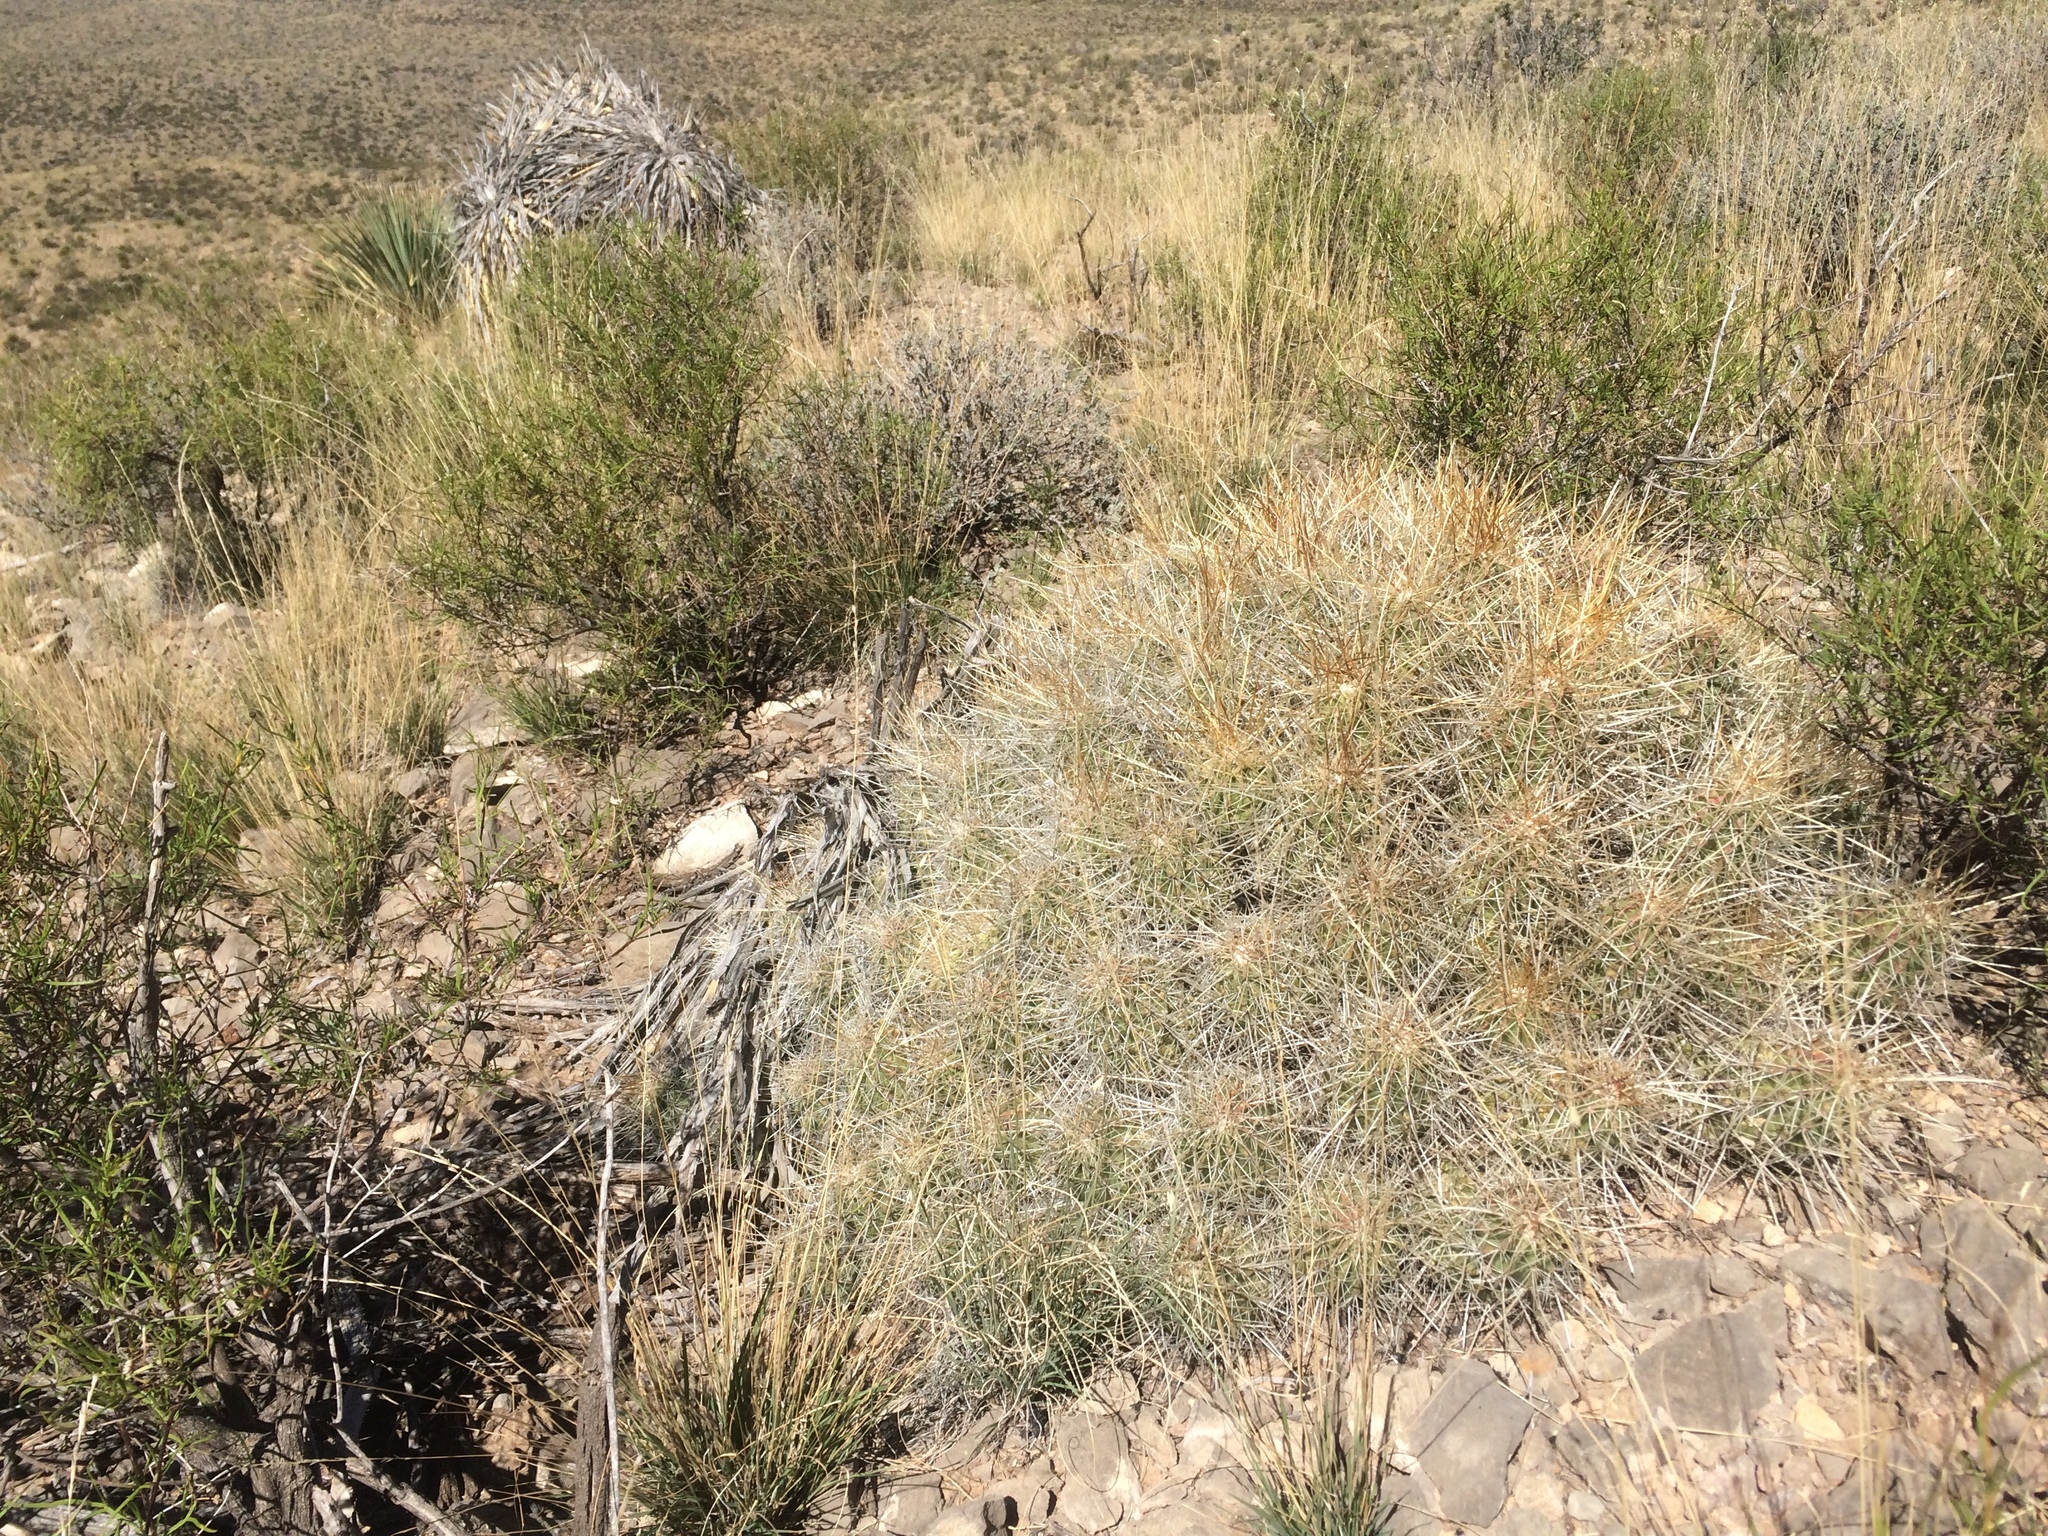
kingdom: Plantae
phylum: Tracheophyta
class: Magnoliopsida
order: Caryophyllales
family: Cactaceae
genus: Echinocereus
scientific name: Echinocereus stramineus
